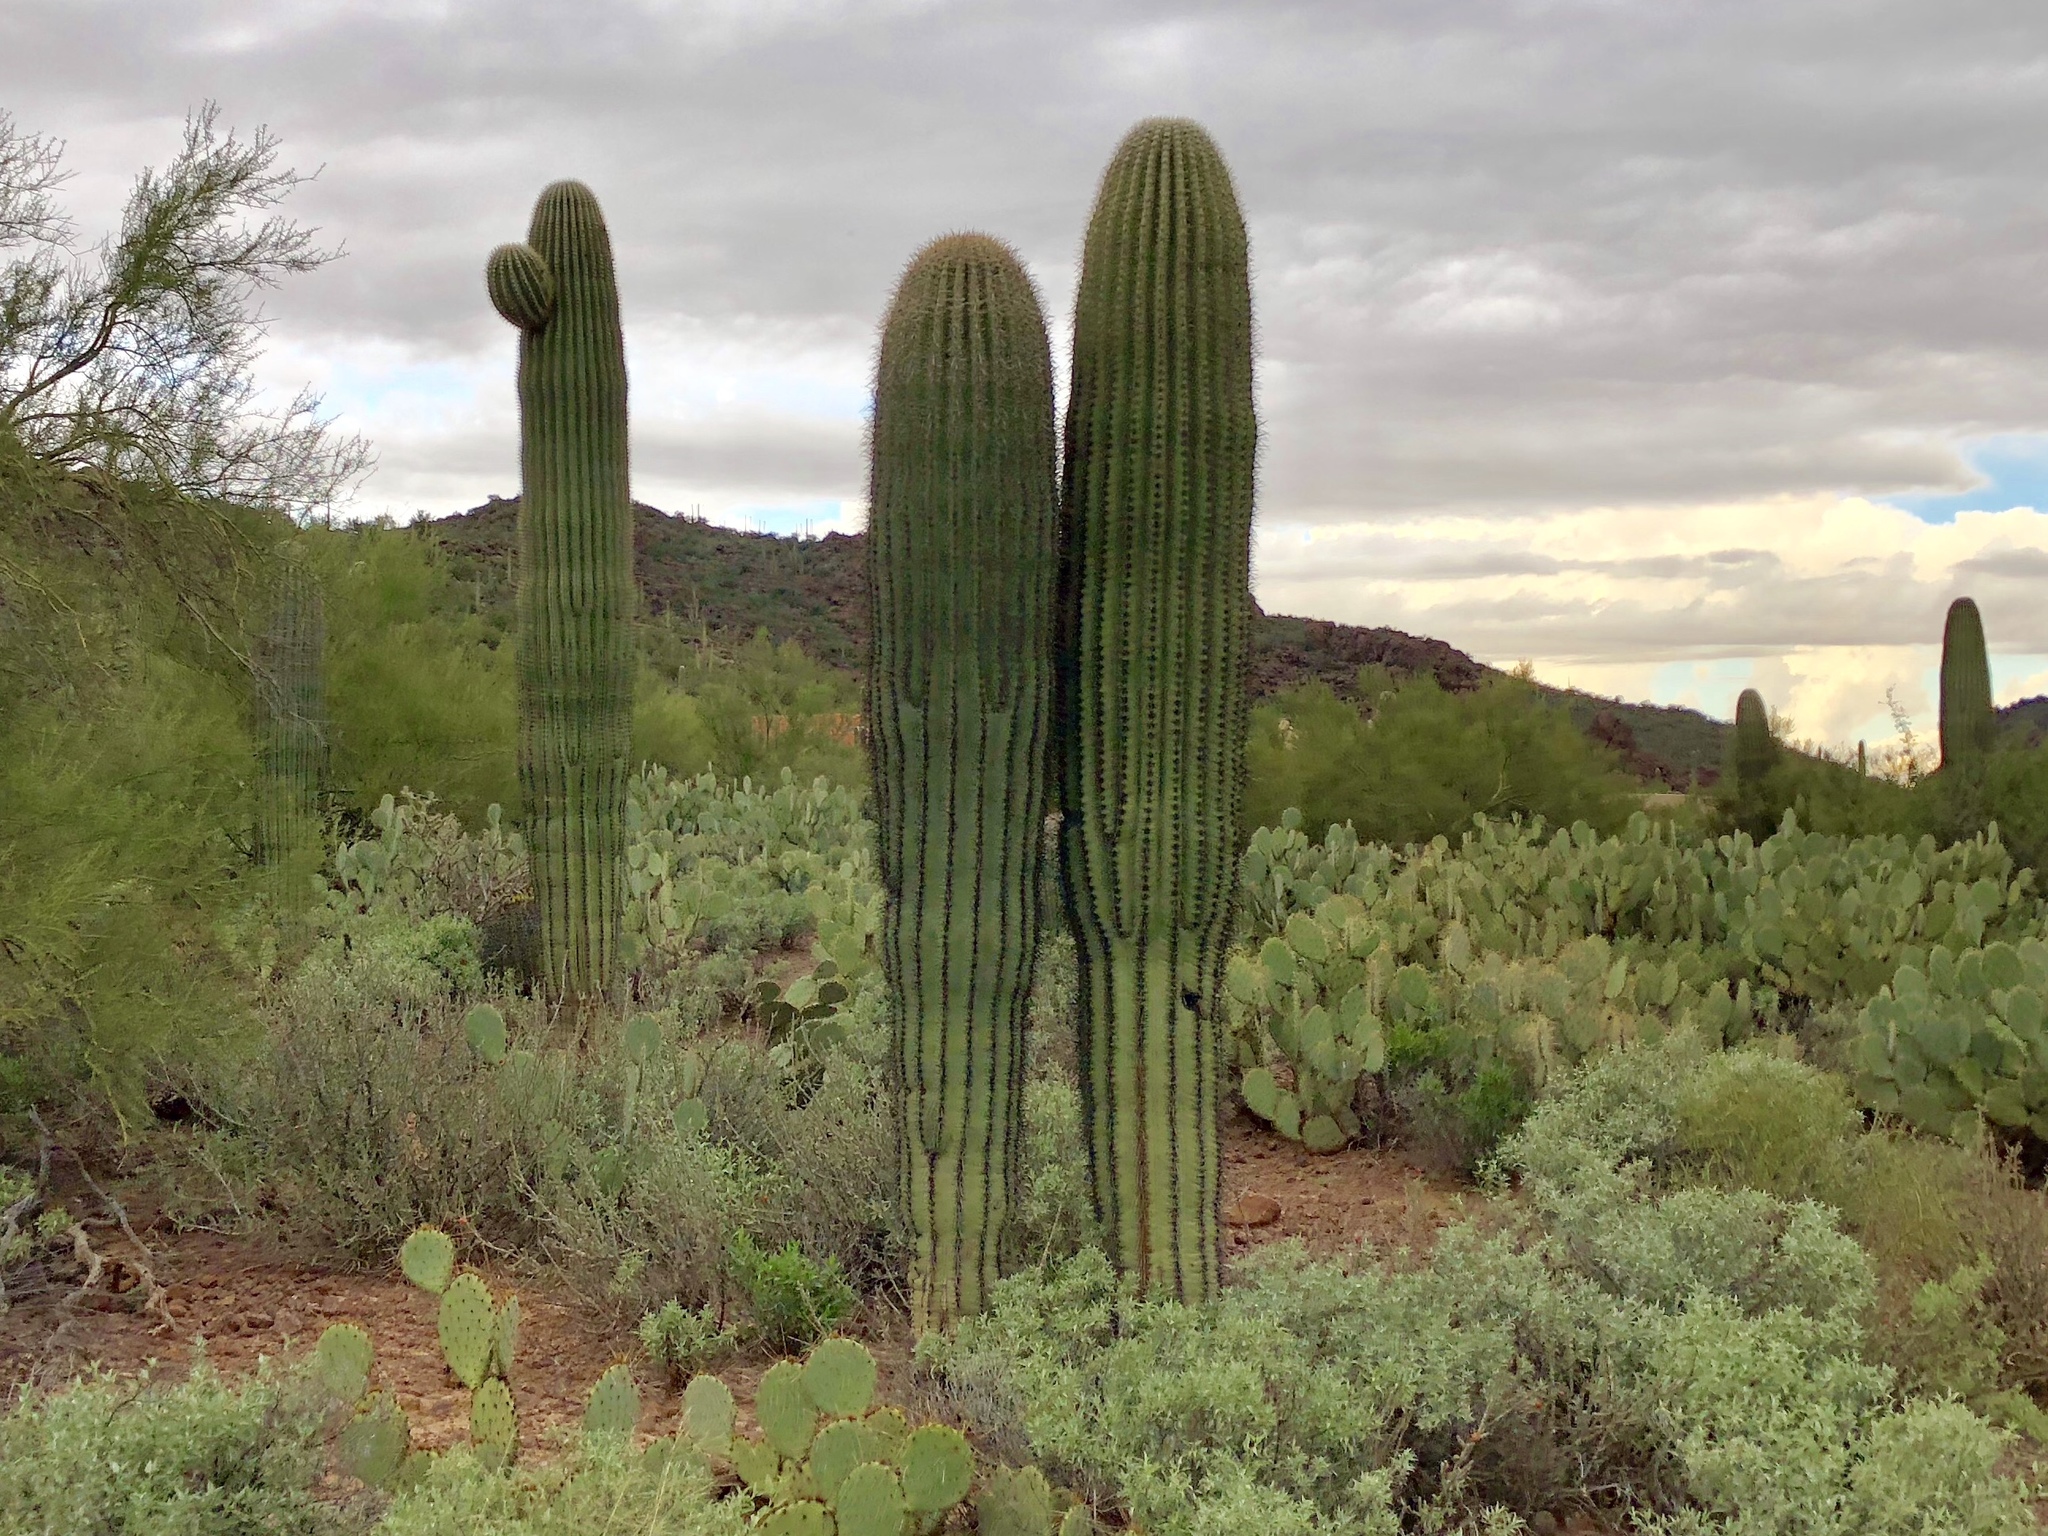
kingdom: Plantae
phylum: Tracheophyta
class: Magnoliopsida
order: Caryophyllales
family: Cactaceae
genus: Carnegiea
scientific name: Carnegiea gigantea
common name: Saguaro
